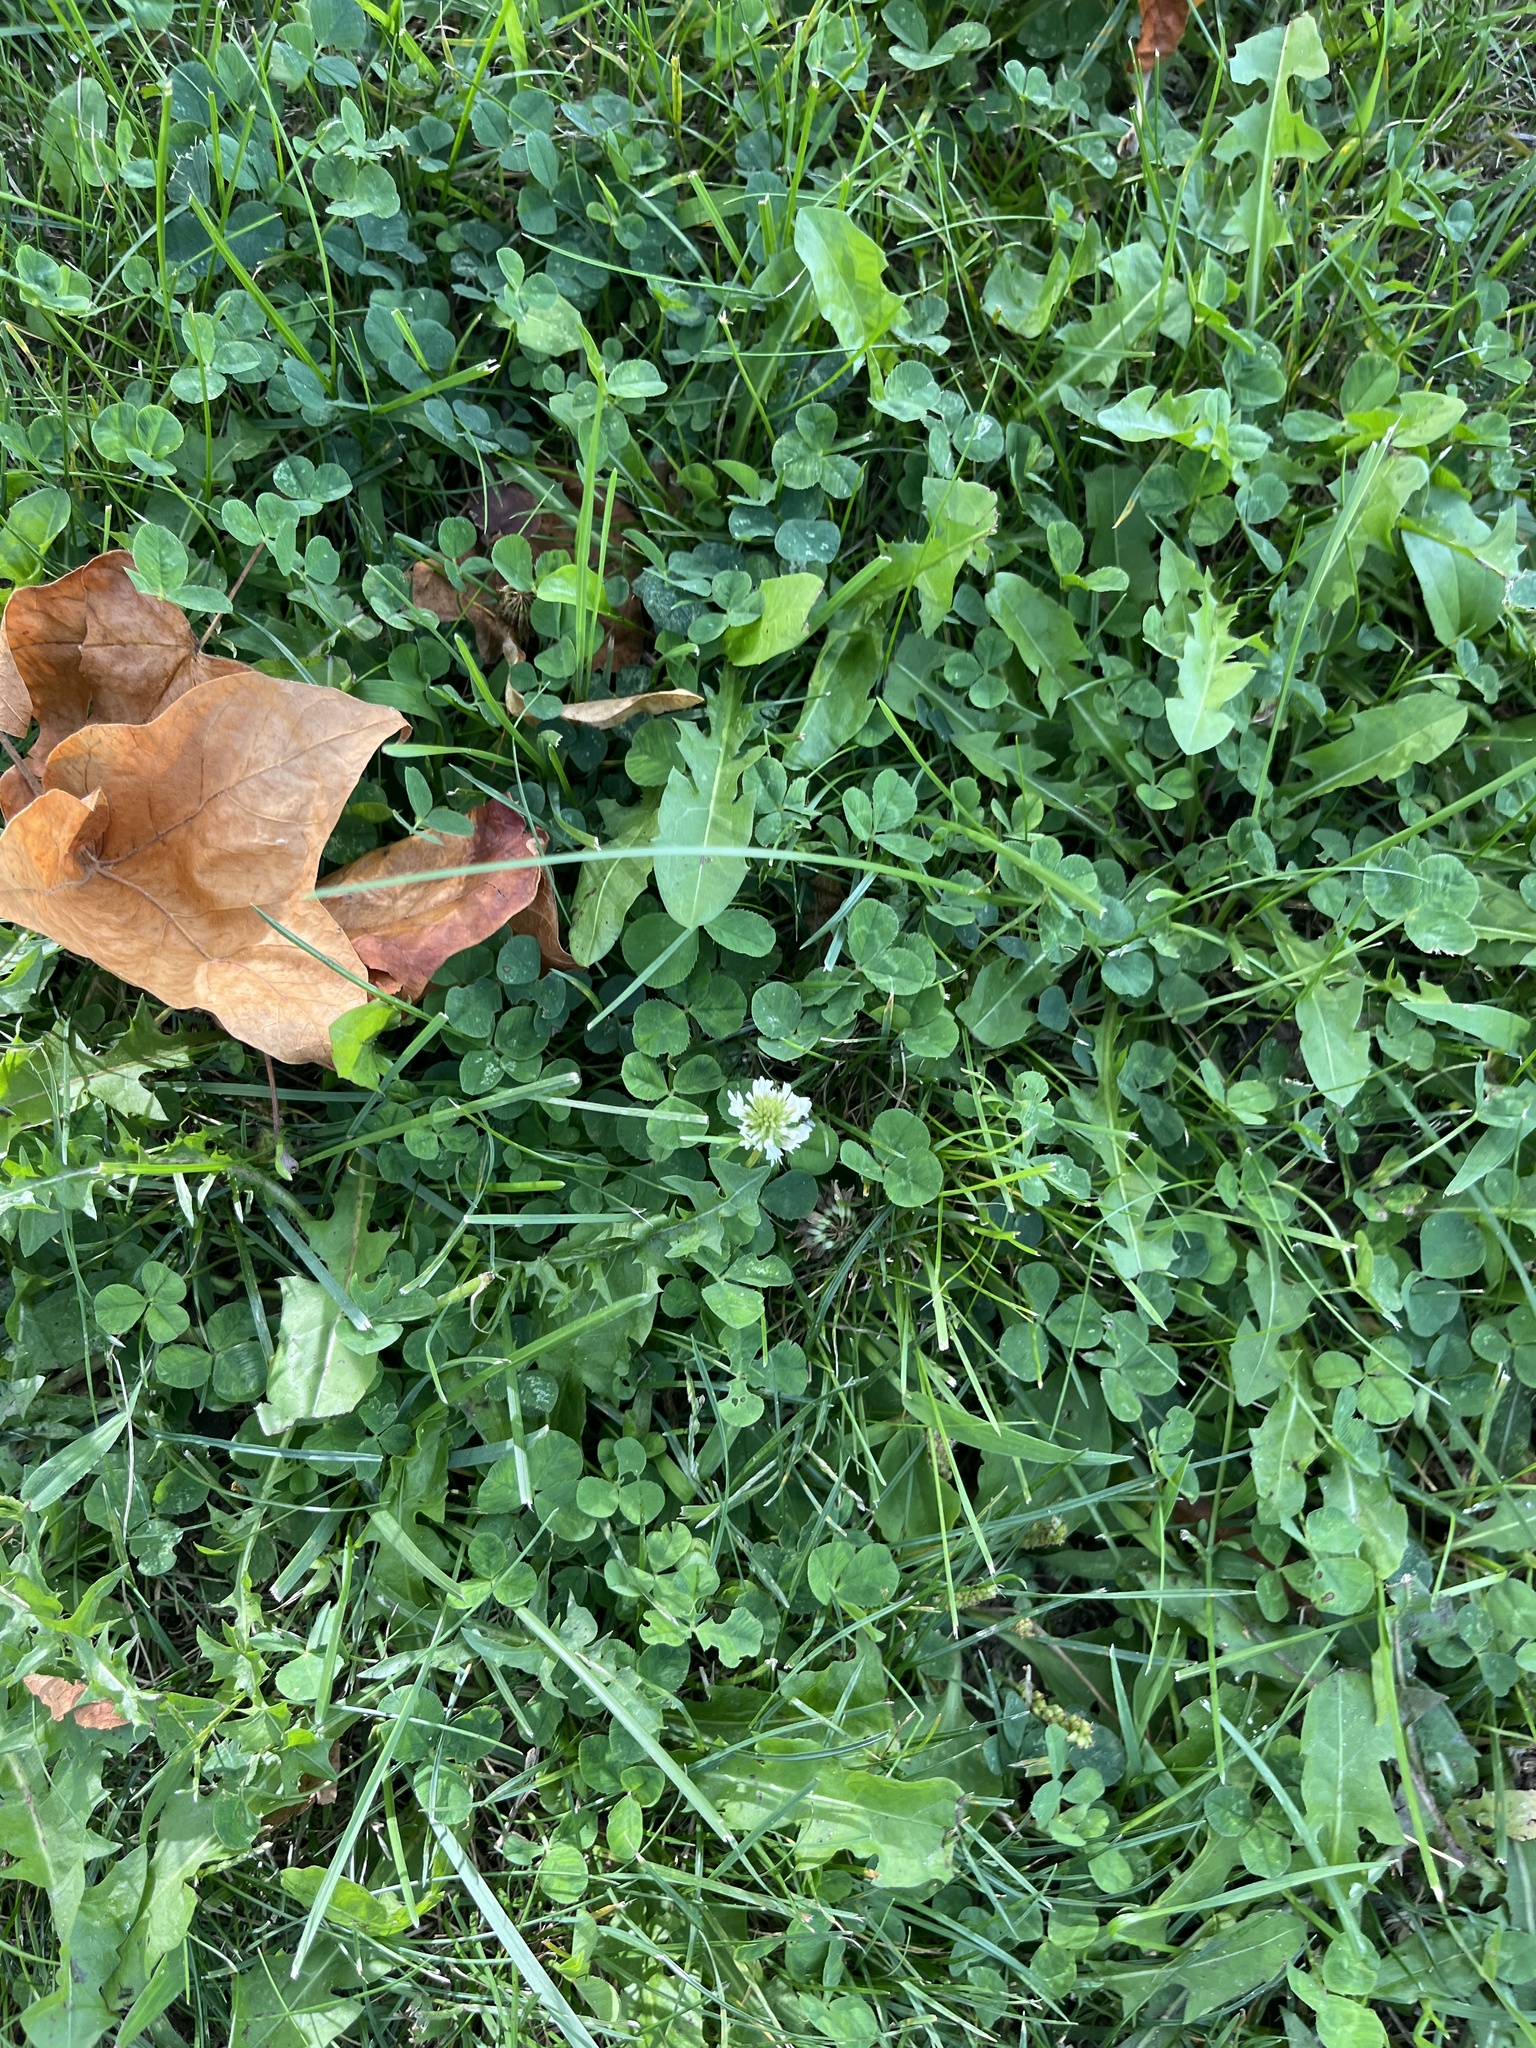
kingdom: Plantae
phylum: Tracheophyta
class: Magnoliopsida
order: Fabales
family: Fabaceae
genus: Trifolium
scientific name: Trifolium repens
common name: White clover
